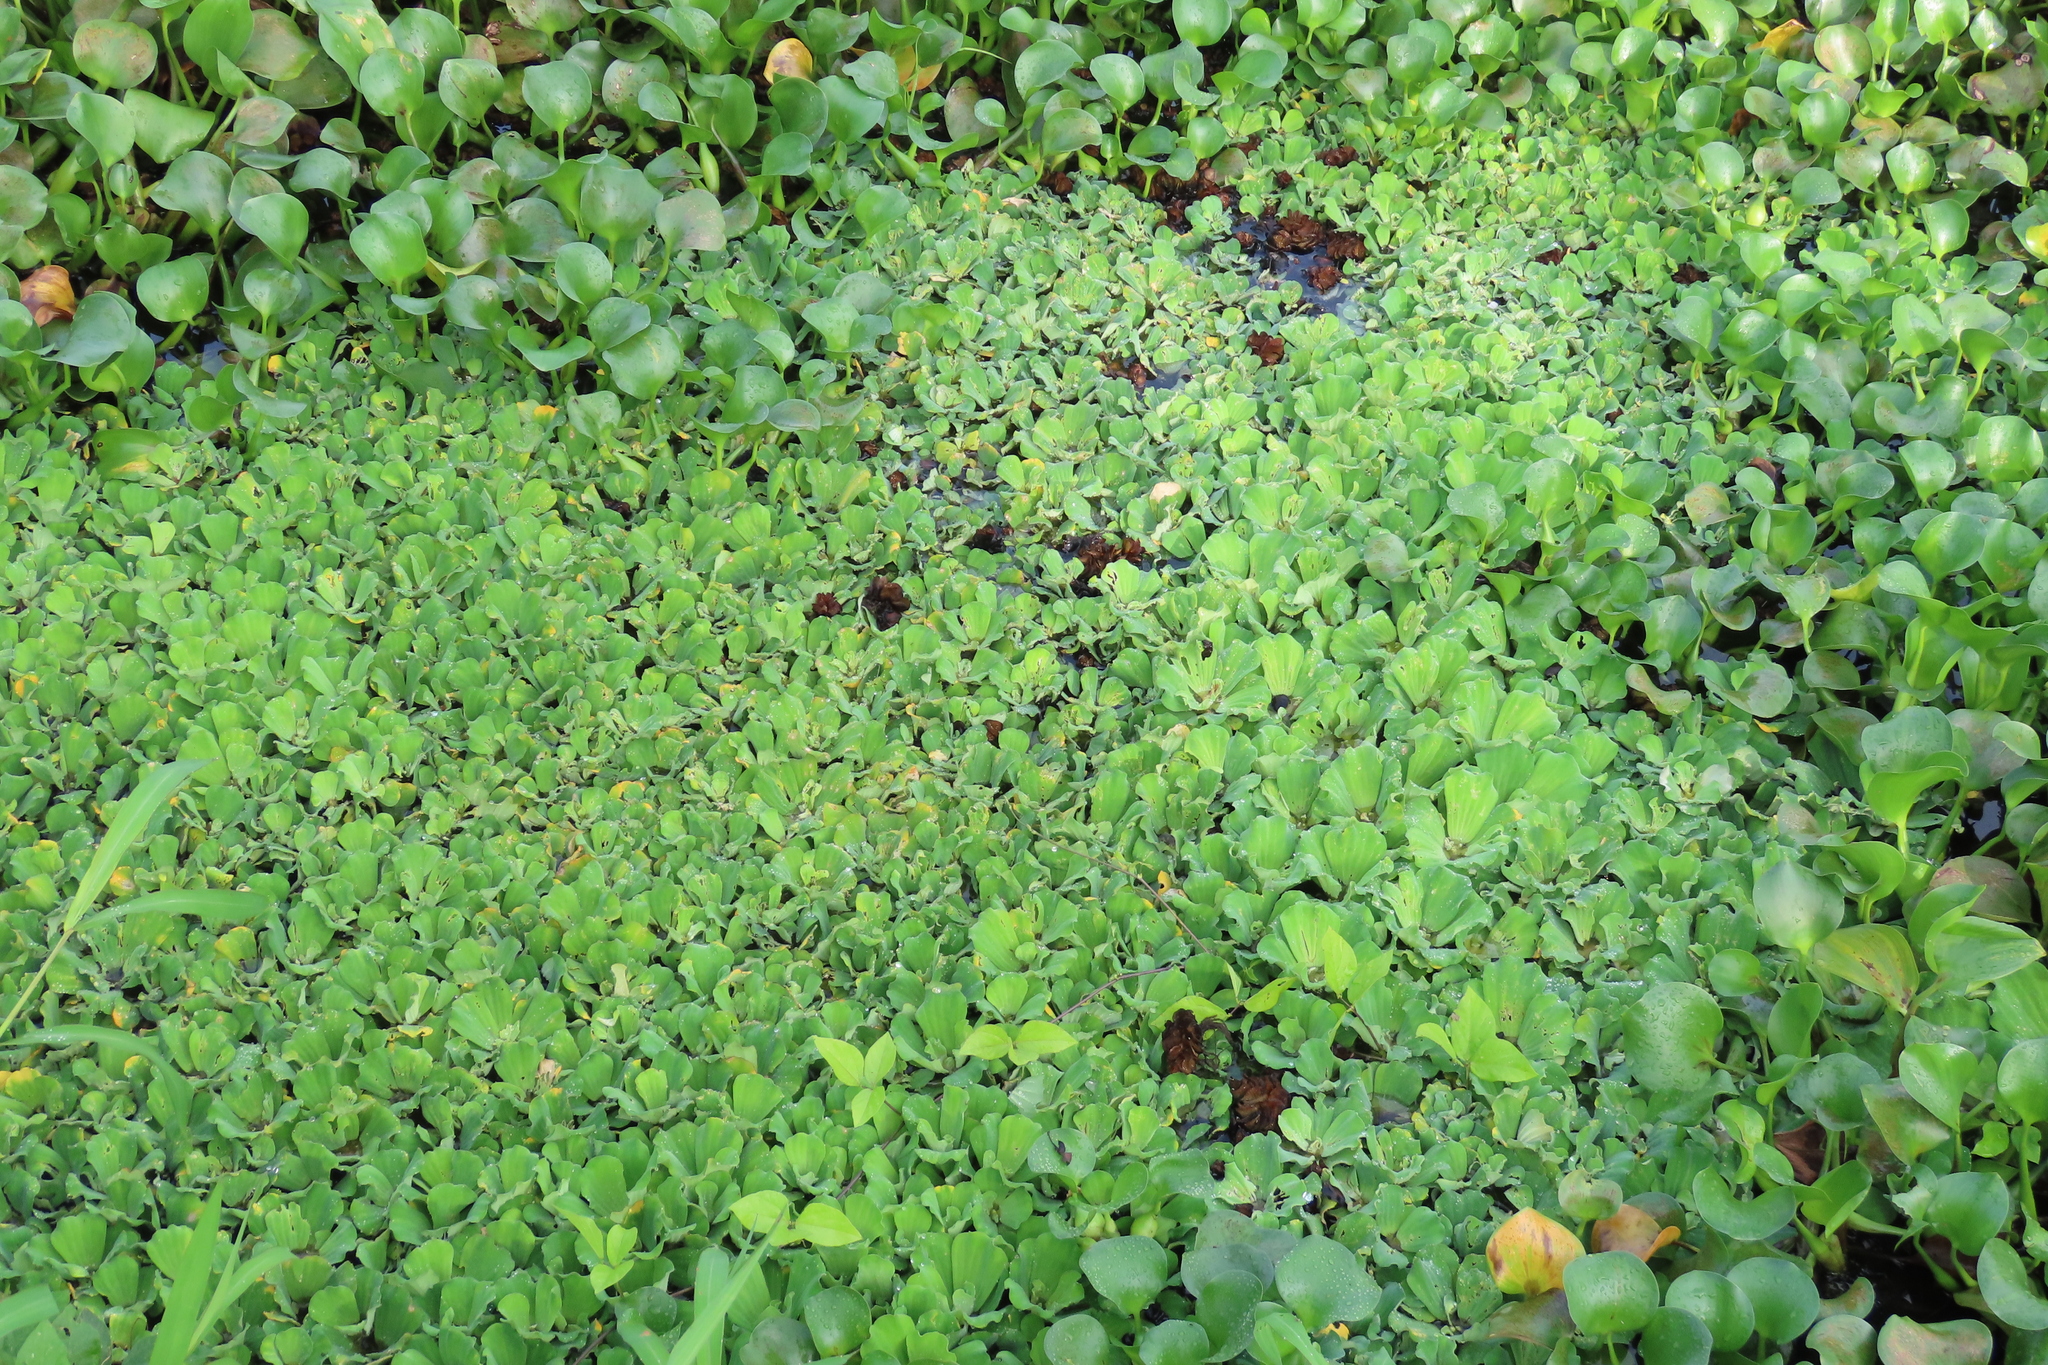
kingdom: Plantae
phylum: Tracheophyta
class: Liliopsida
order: Alismatales
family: Araceae
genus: Pistia
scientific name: Pistia stratiotes
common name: Water lettuce
